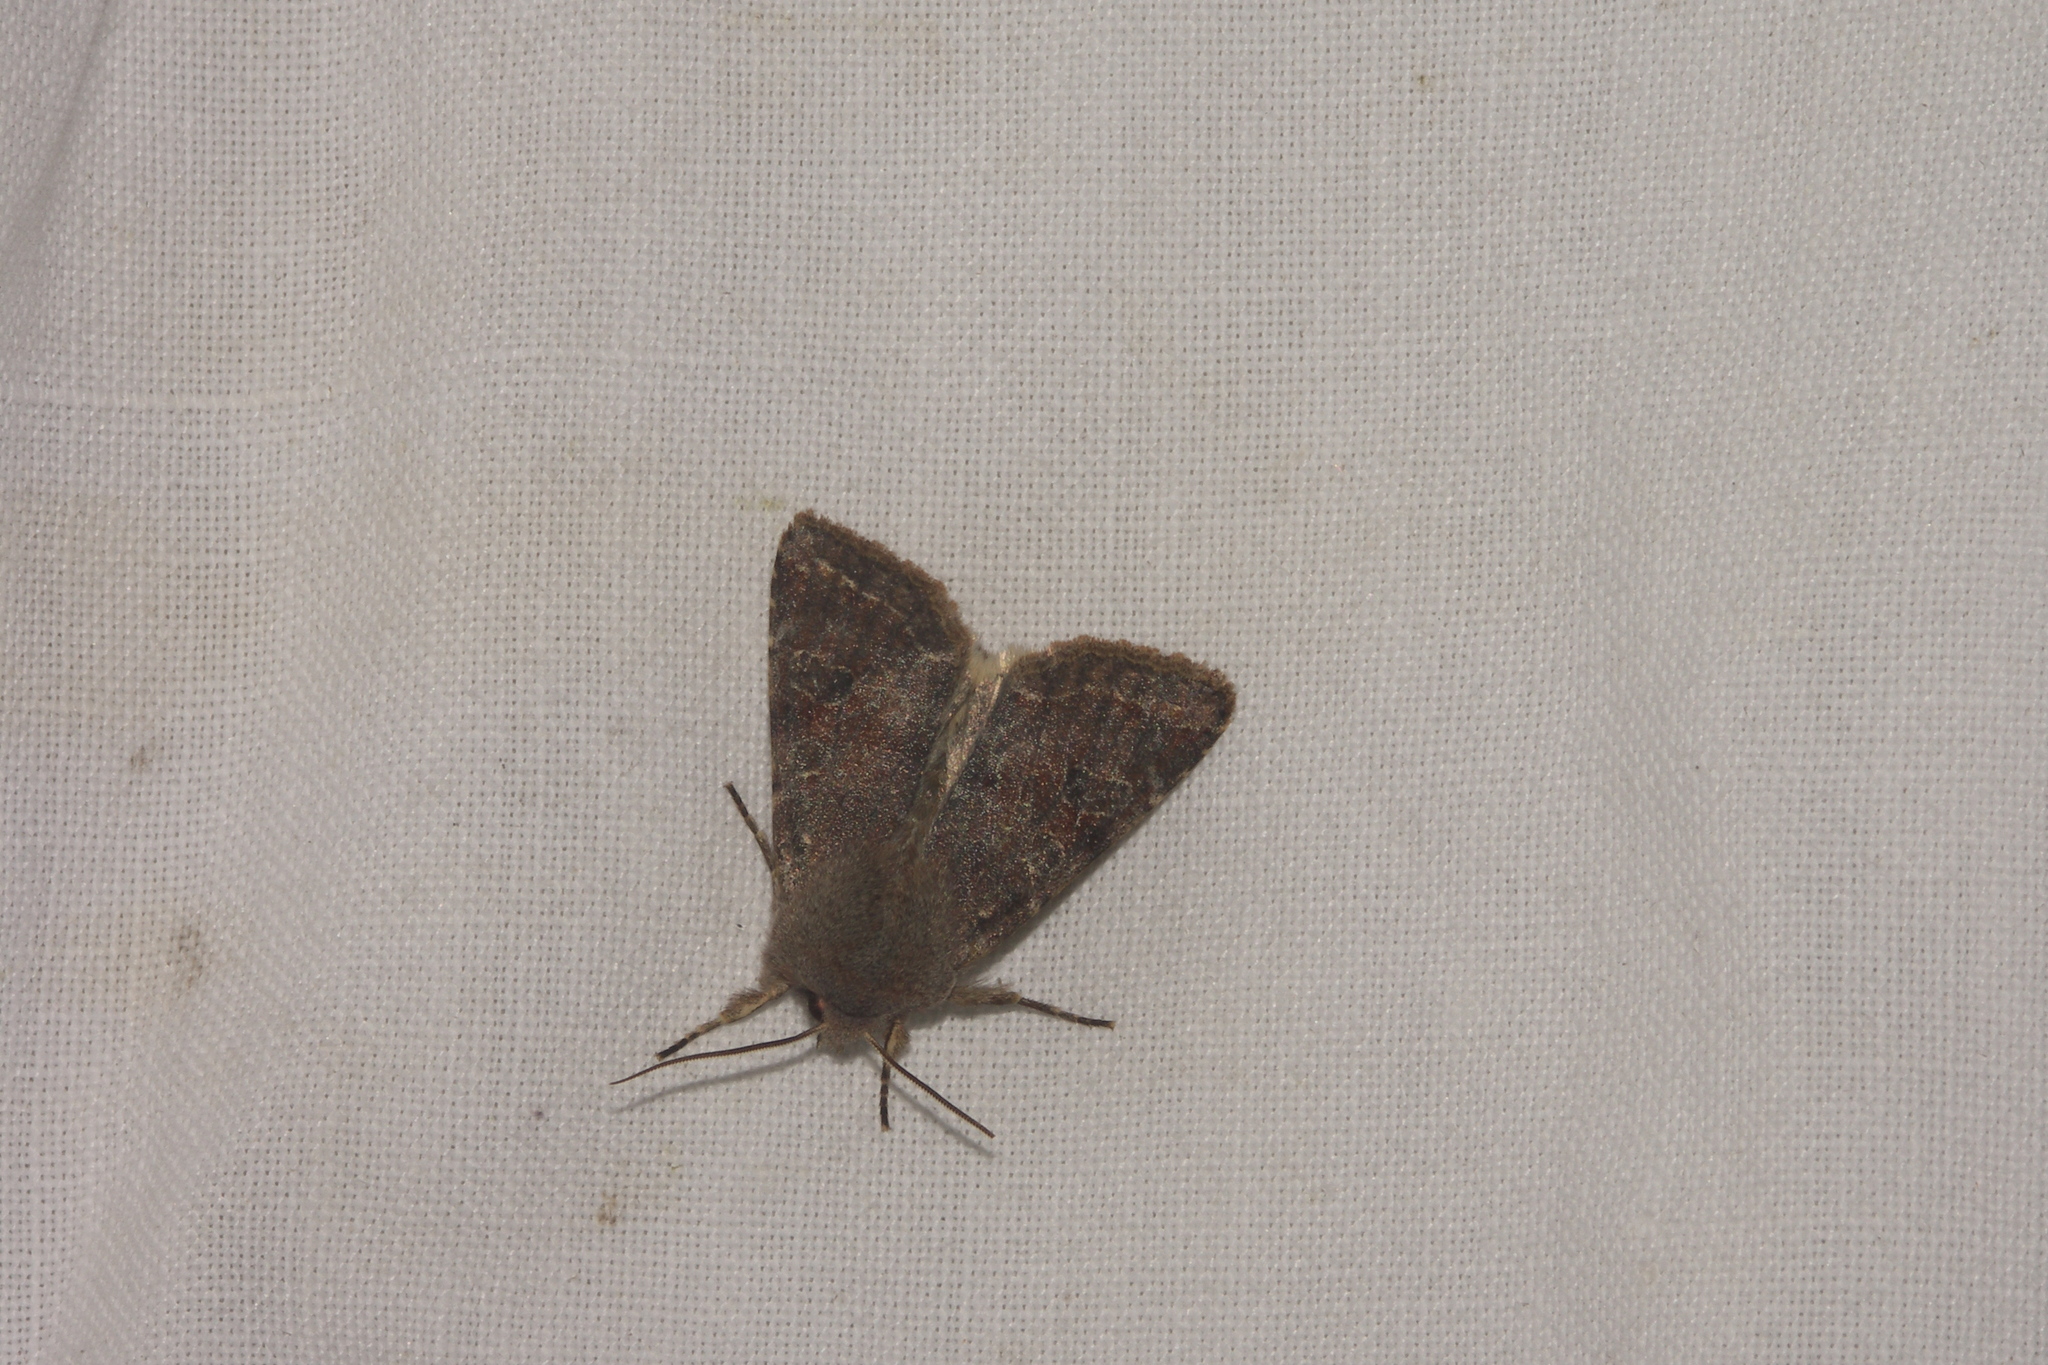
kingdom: Animalia
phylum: Arthropoda
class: Insecta
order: Lepidoptera
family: Noctuidae
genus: Orthosia
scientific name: Orthosia incerta
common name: Clouded drab
